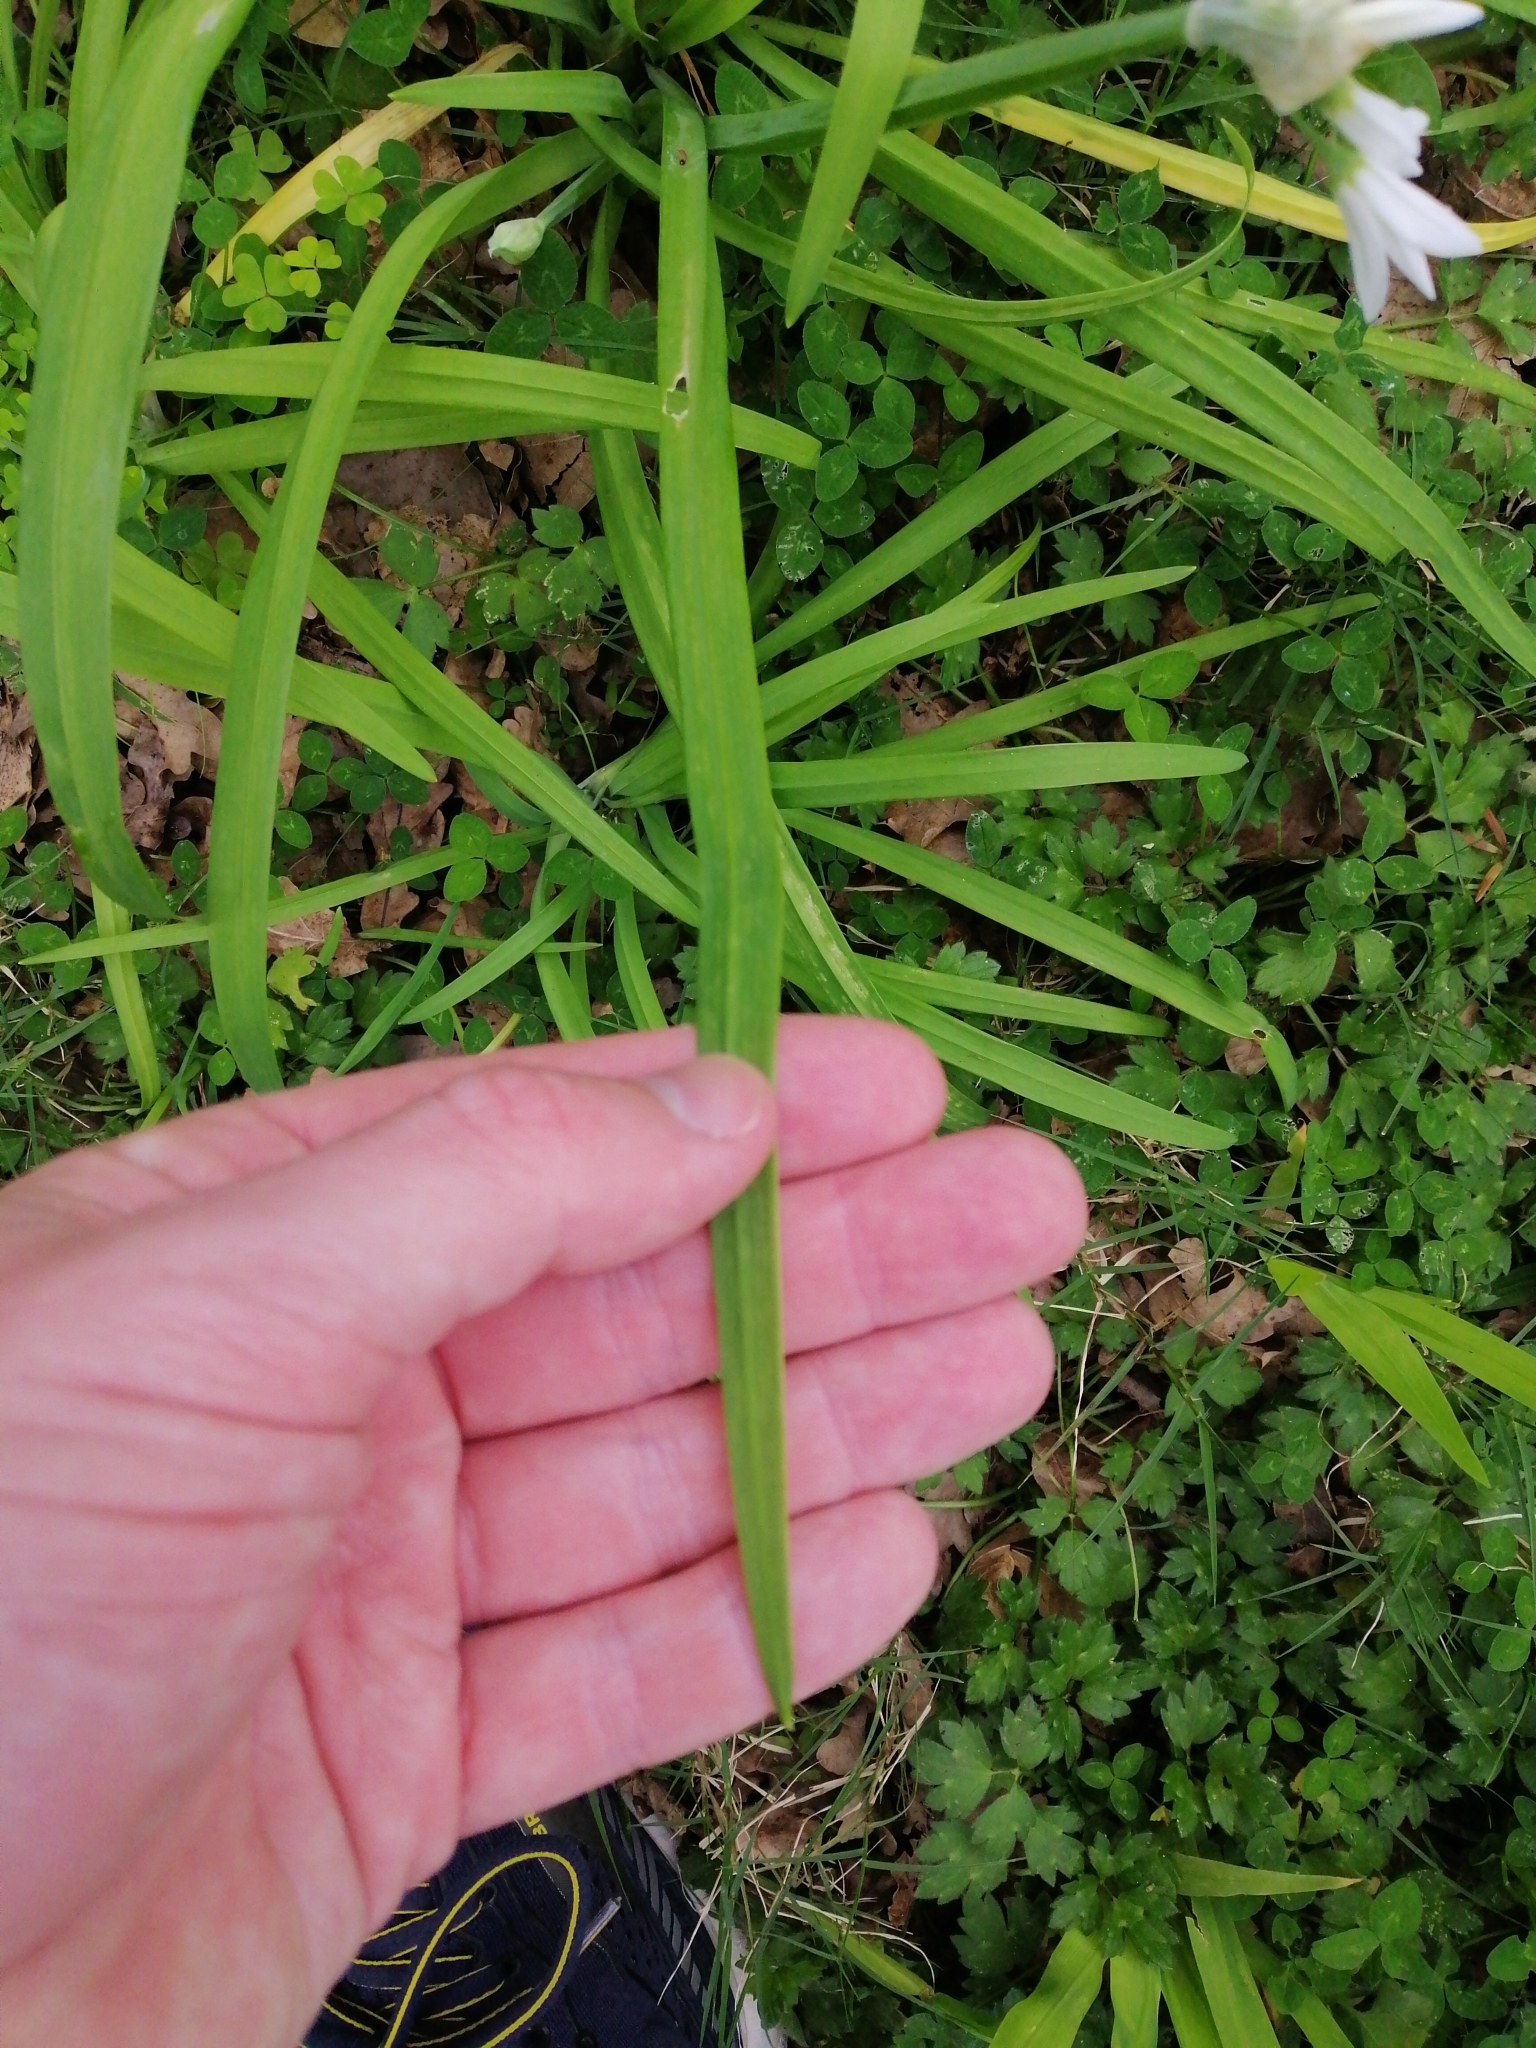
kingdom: Plantae
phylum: Tracheophyta
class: Liliopsida
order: Asparagales
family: Amaryllidaceae
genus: Allium
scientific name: Allium triquetrum
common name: Three-cornered garlic
